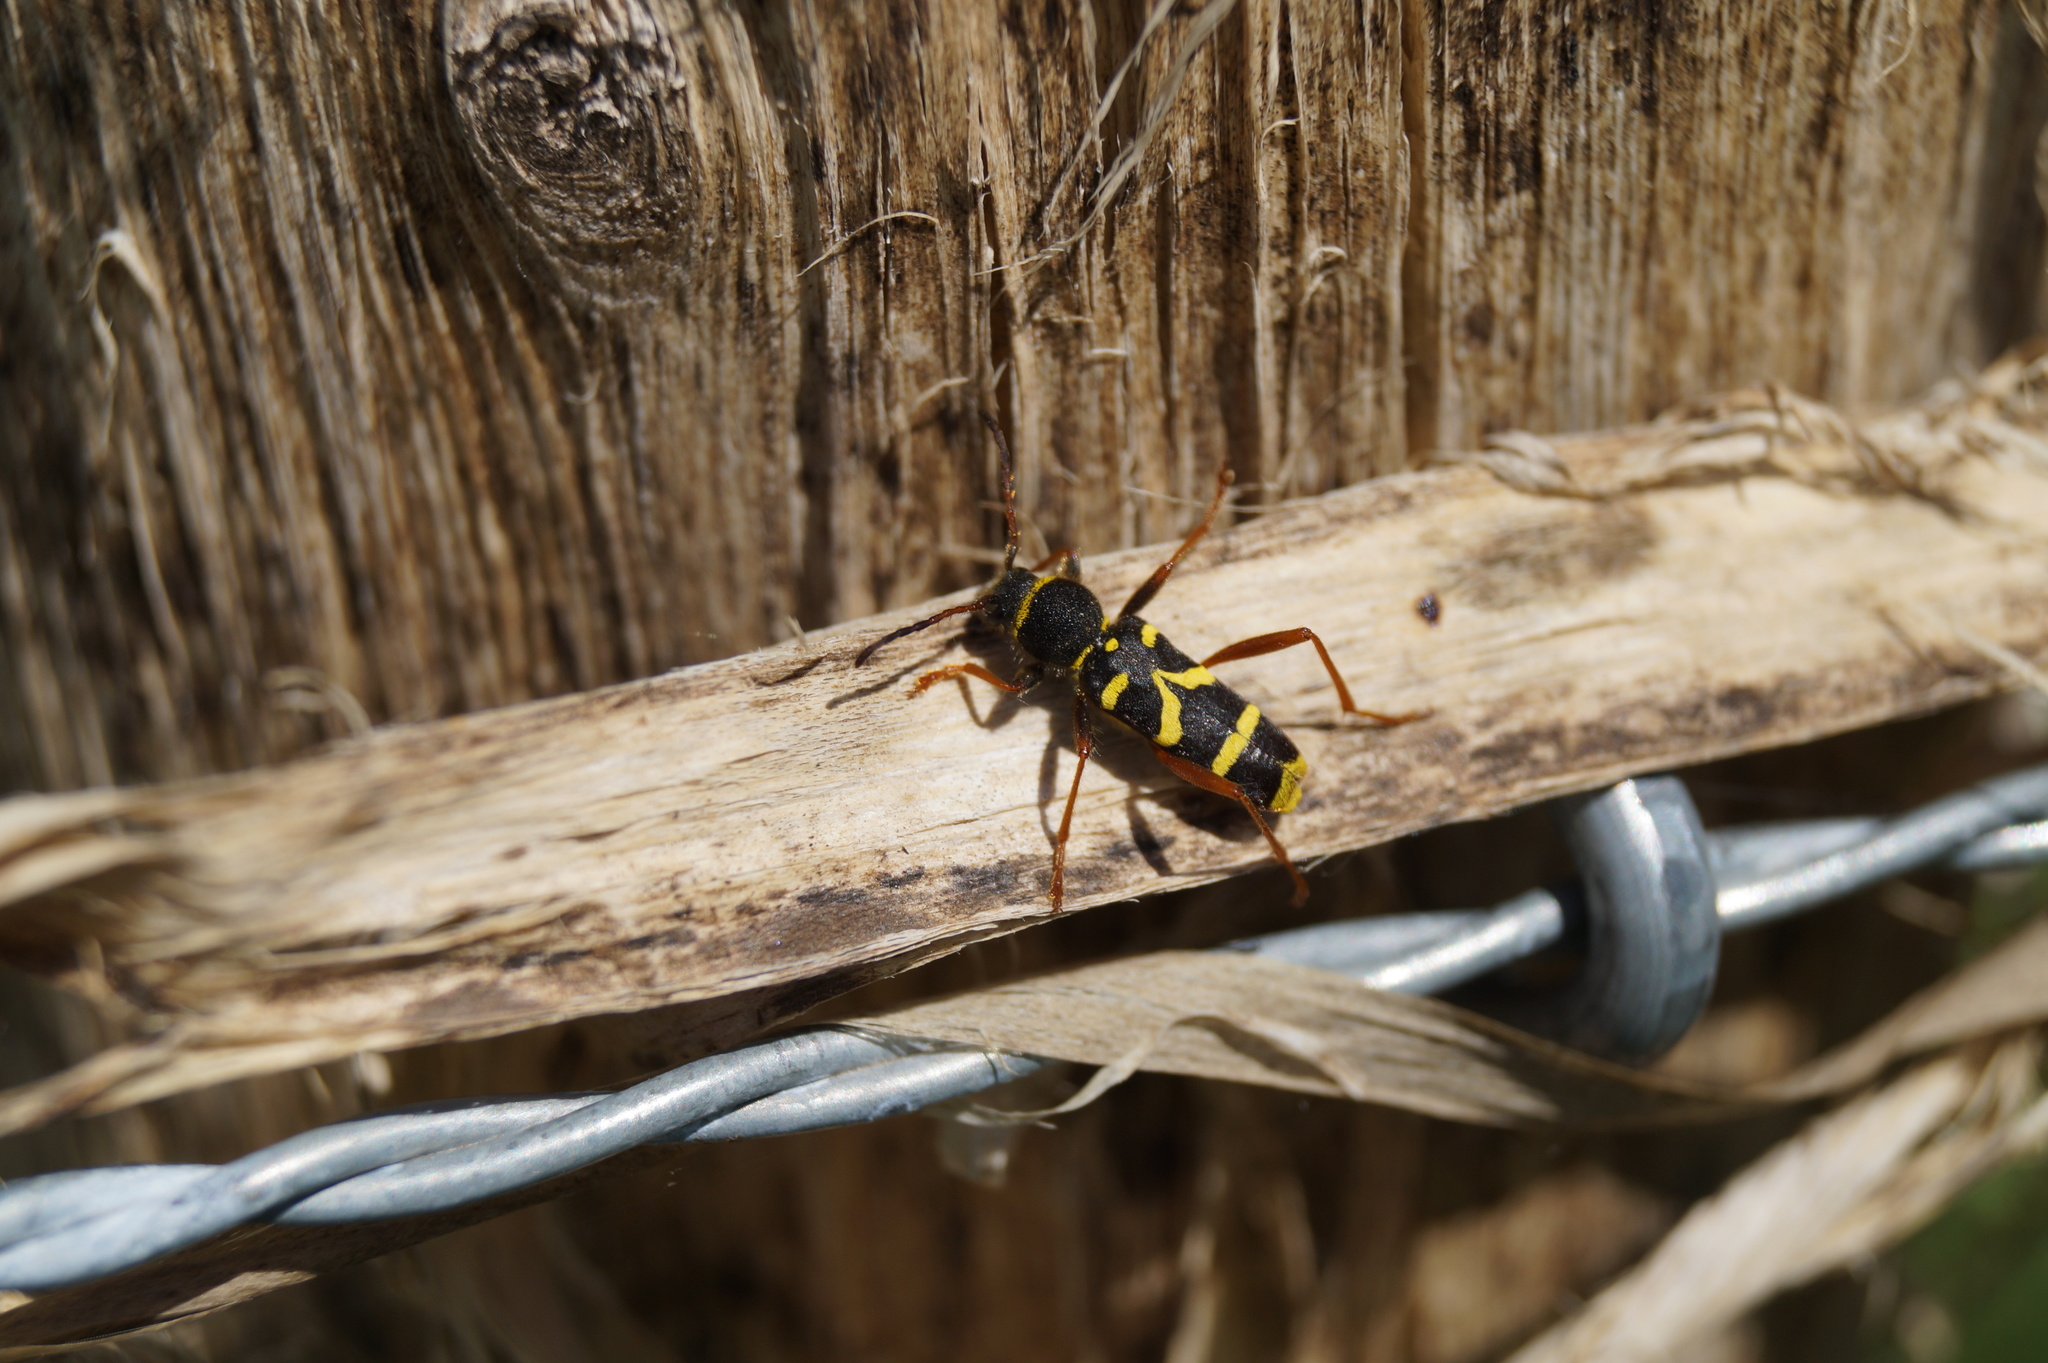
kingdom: Animalia
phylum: Arthropoda
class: Insecta
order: Coleoptera
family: Cerambycidae
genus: Clytus
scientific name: Clytus arietis
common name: Wasp beetle
